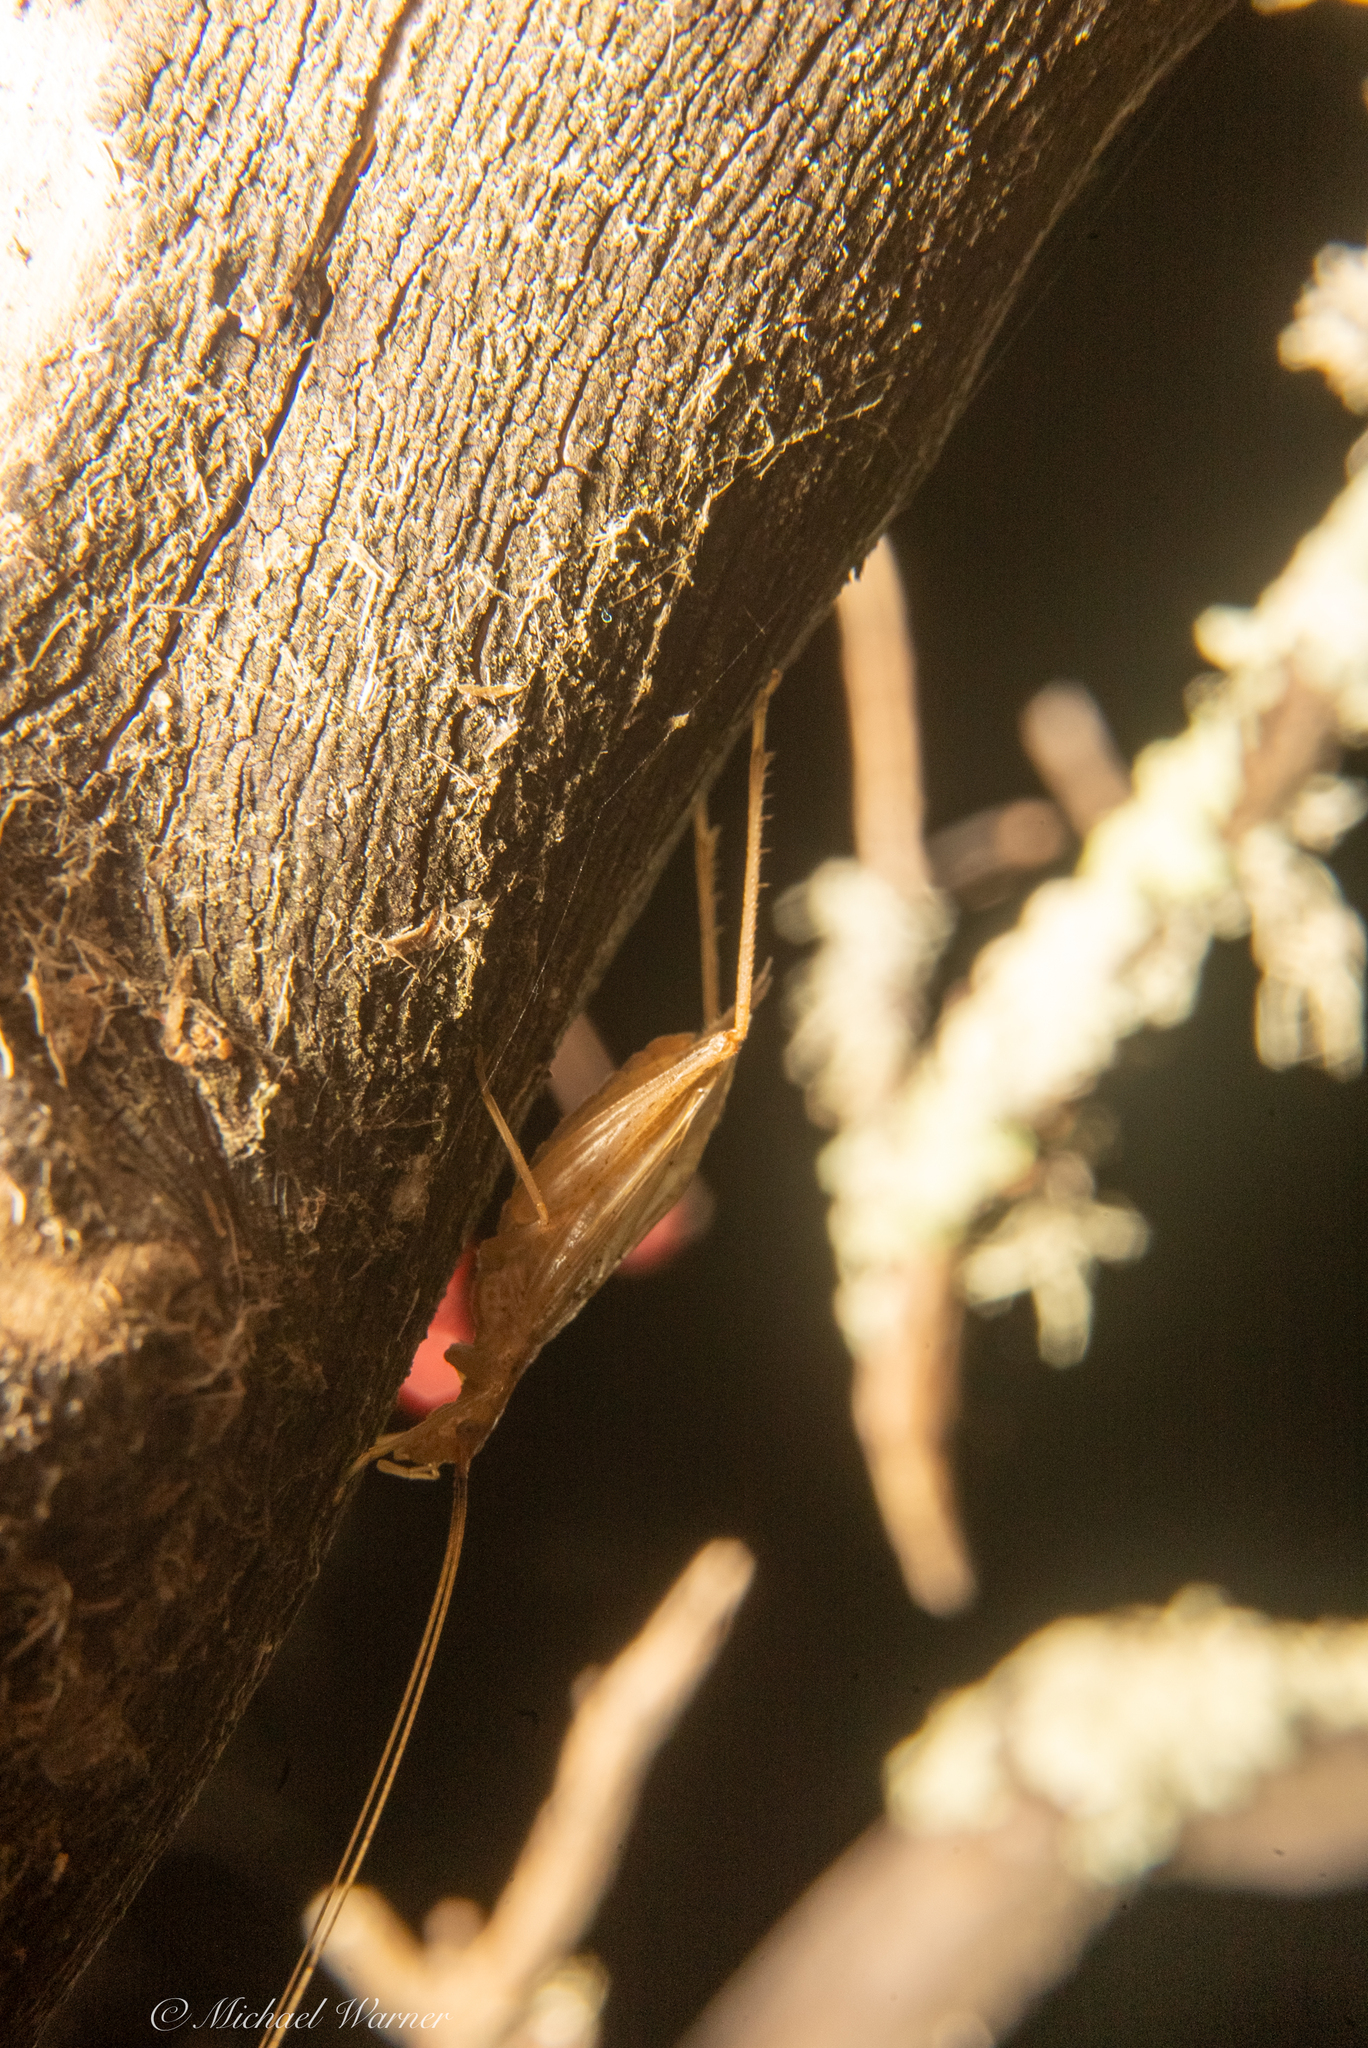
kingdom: Animalia
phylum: Arthropoda
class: Insecta
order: Orthoptera
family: Gryllidae
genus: Oecanthus
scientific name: Oecanthus californicus
